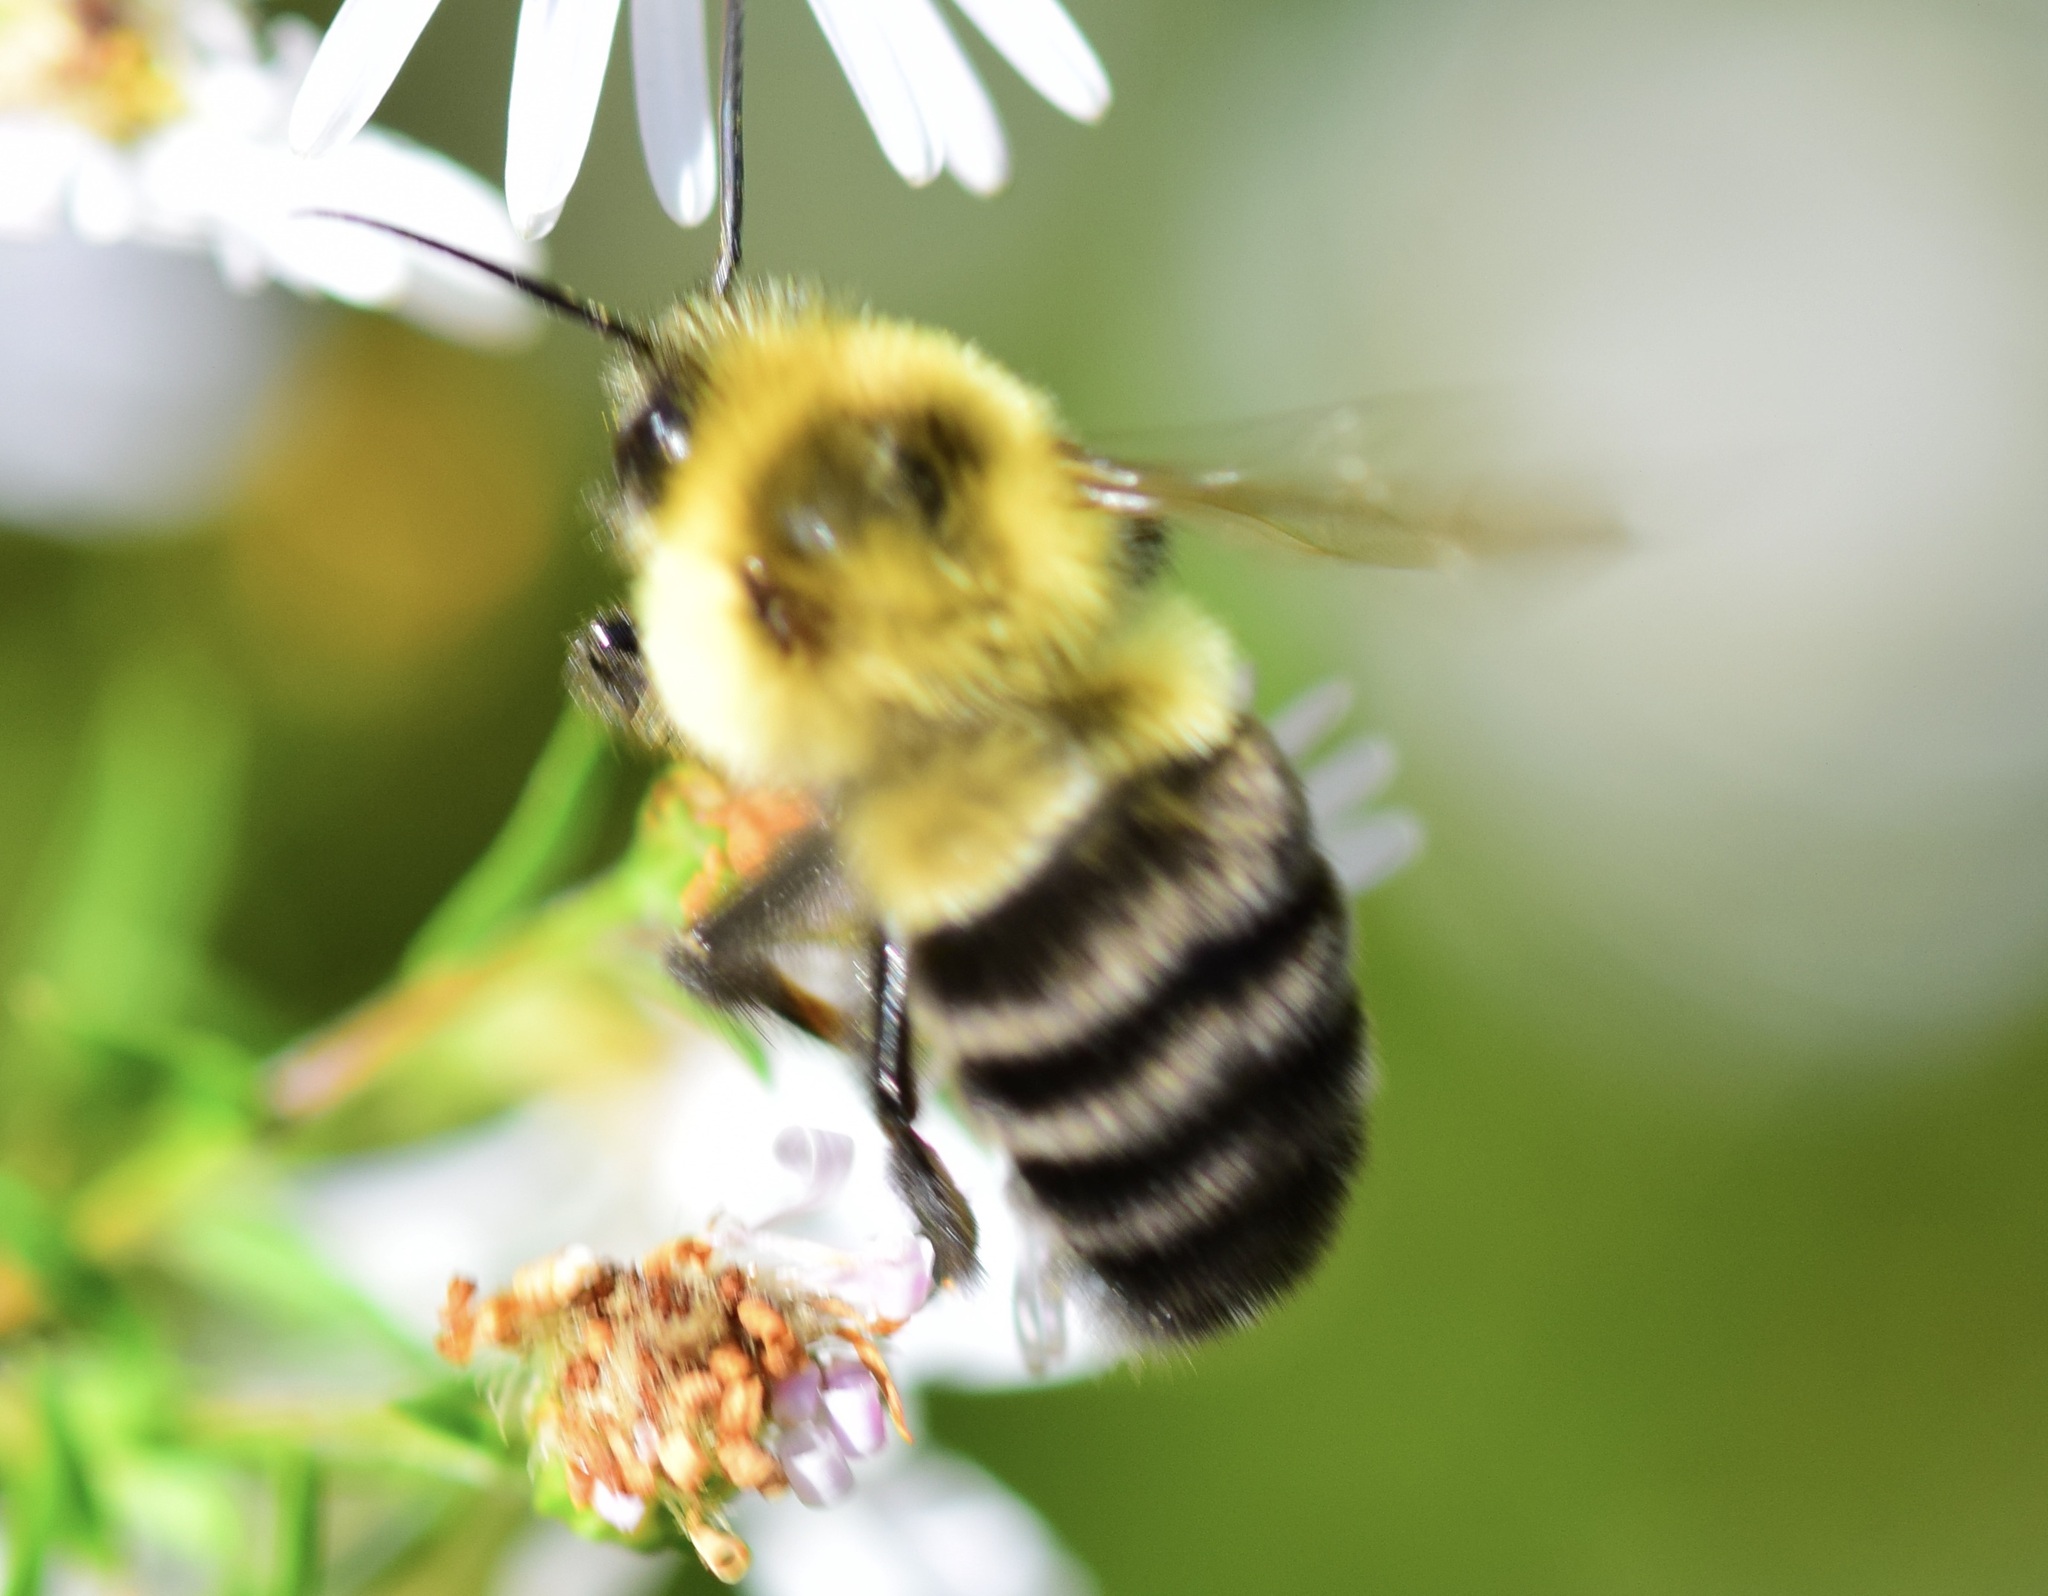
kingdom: Animalia
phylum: Arthropoda
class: Insecta
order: Hymenoptera
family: Apidae
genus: Bombus
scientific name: Bombus impatiens
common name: Common eastern bumble bee
